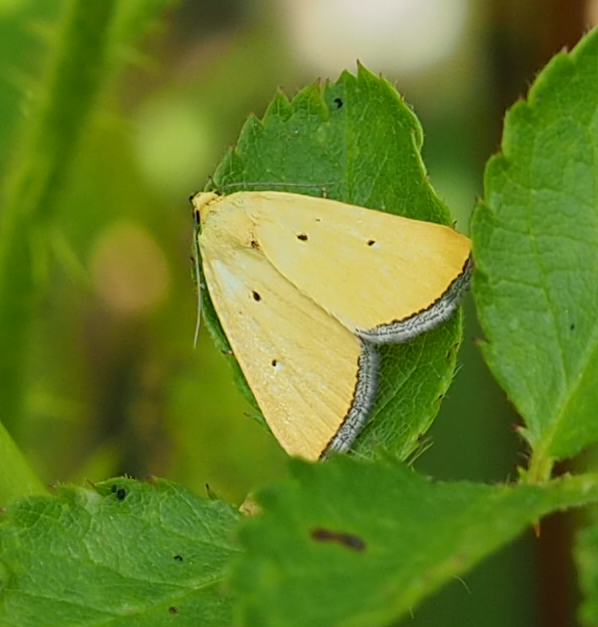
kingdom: Animalia
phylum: Arthropoda
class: Insecta
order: Lepidoptera
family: Noctuidae
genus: Marimatha
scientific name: Marimatha nigrofimbria
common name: Black-bordered lemon moth
